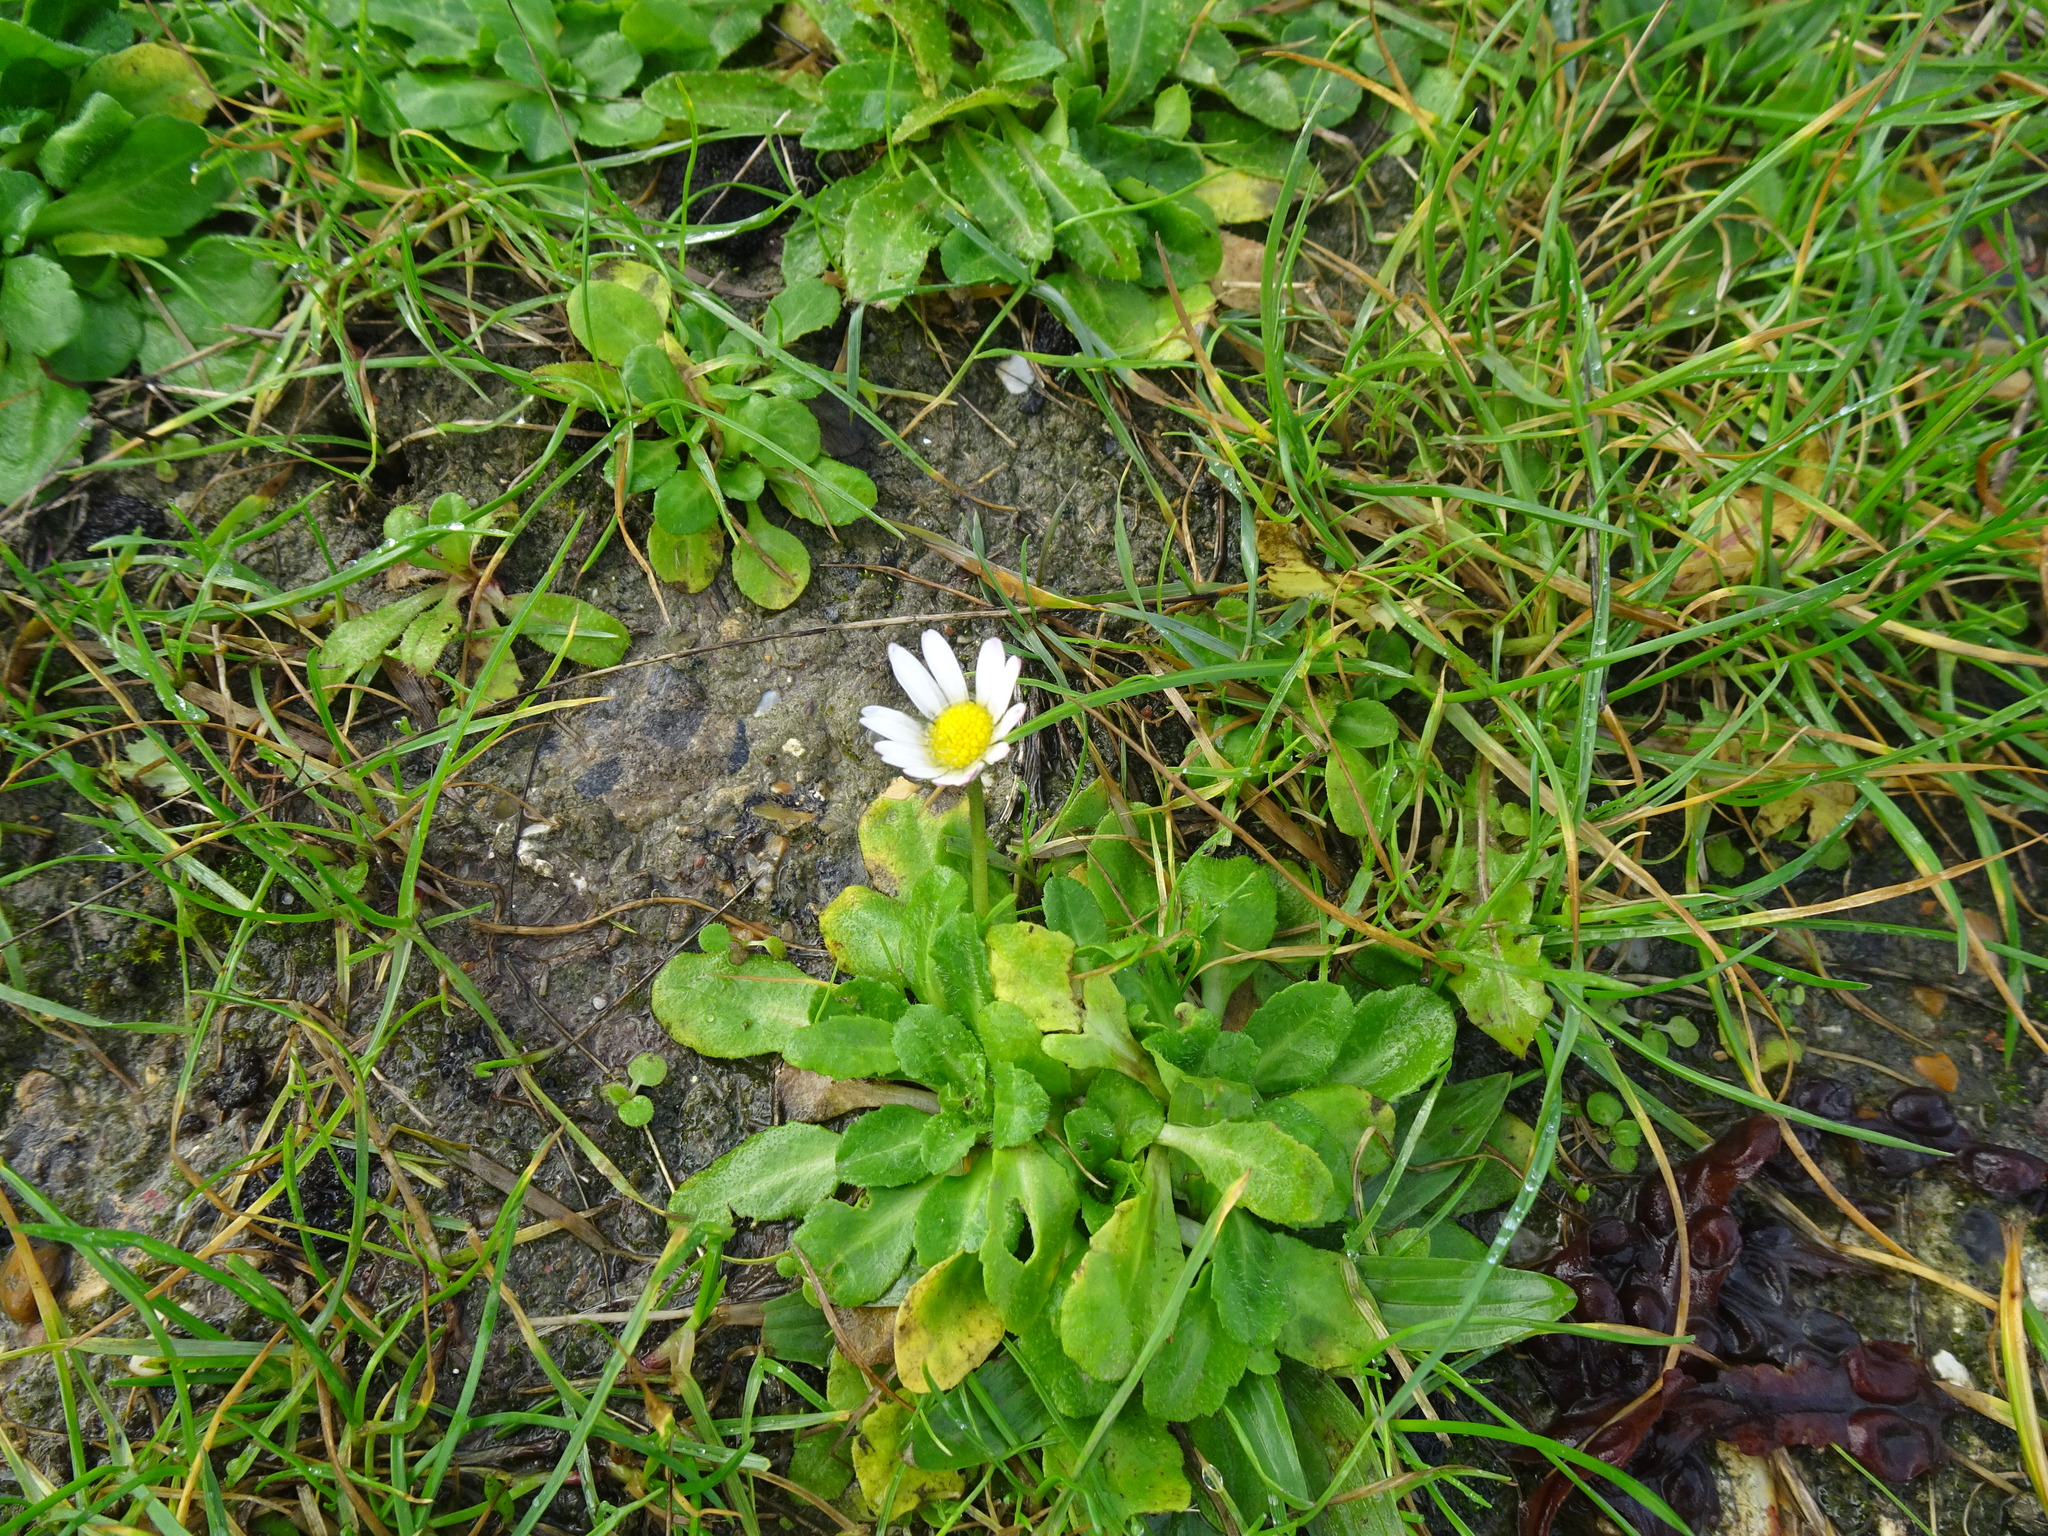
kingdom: Plantae
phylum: Tracheophyta
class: Magnoliopsida
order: Asterales
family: Asteraceae
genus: Bellis
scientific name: Bellis perennis
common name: Lawndaisy
